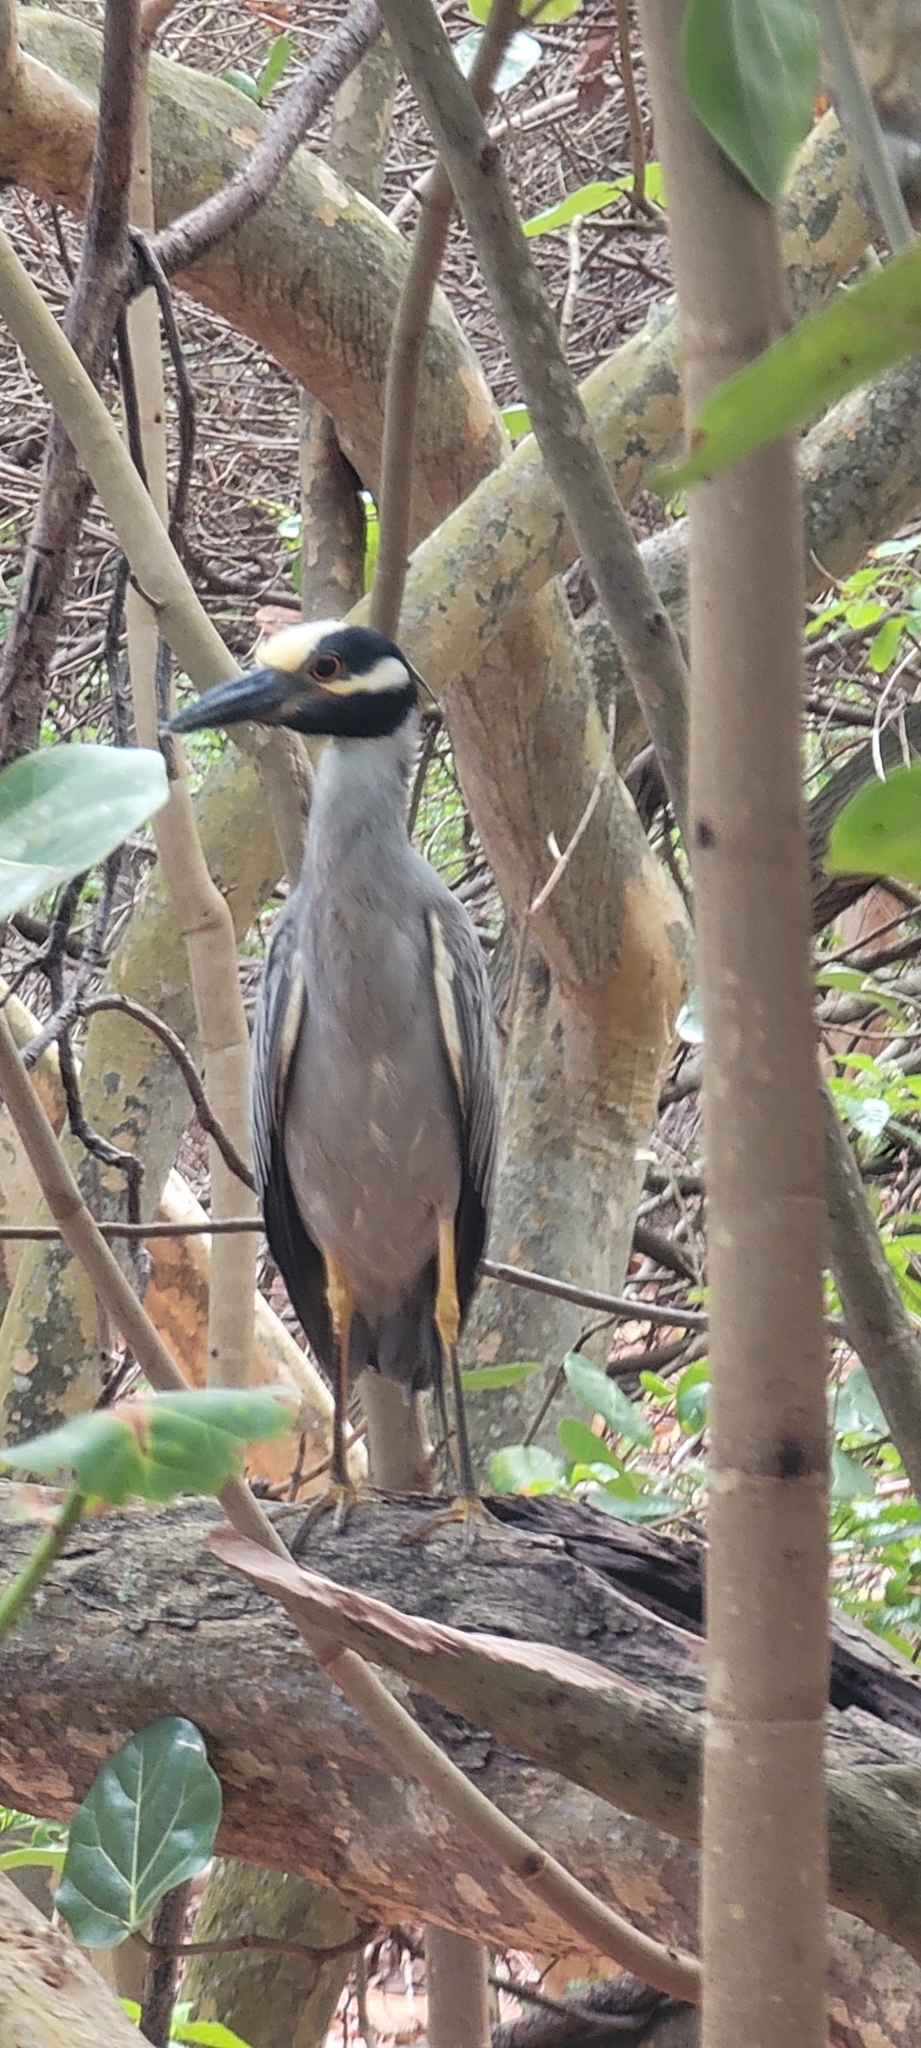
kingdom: Animalia
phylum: Chordata
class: Aves
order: Pelecaniformes
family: Ardeidae
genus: Nyctanassa
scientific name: Nyctanassa violacea
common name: Yellow-crowned night heron
